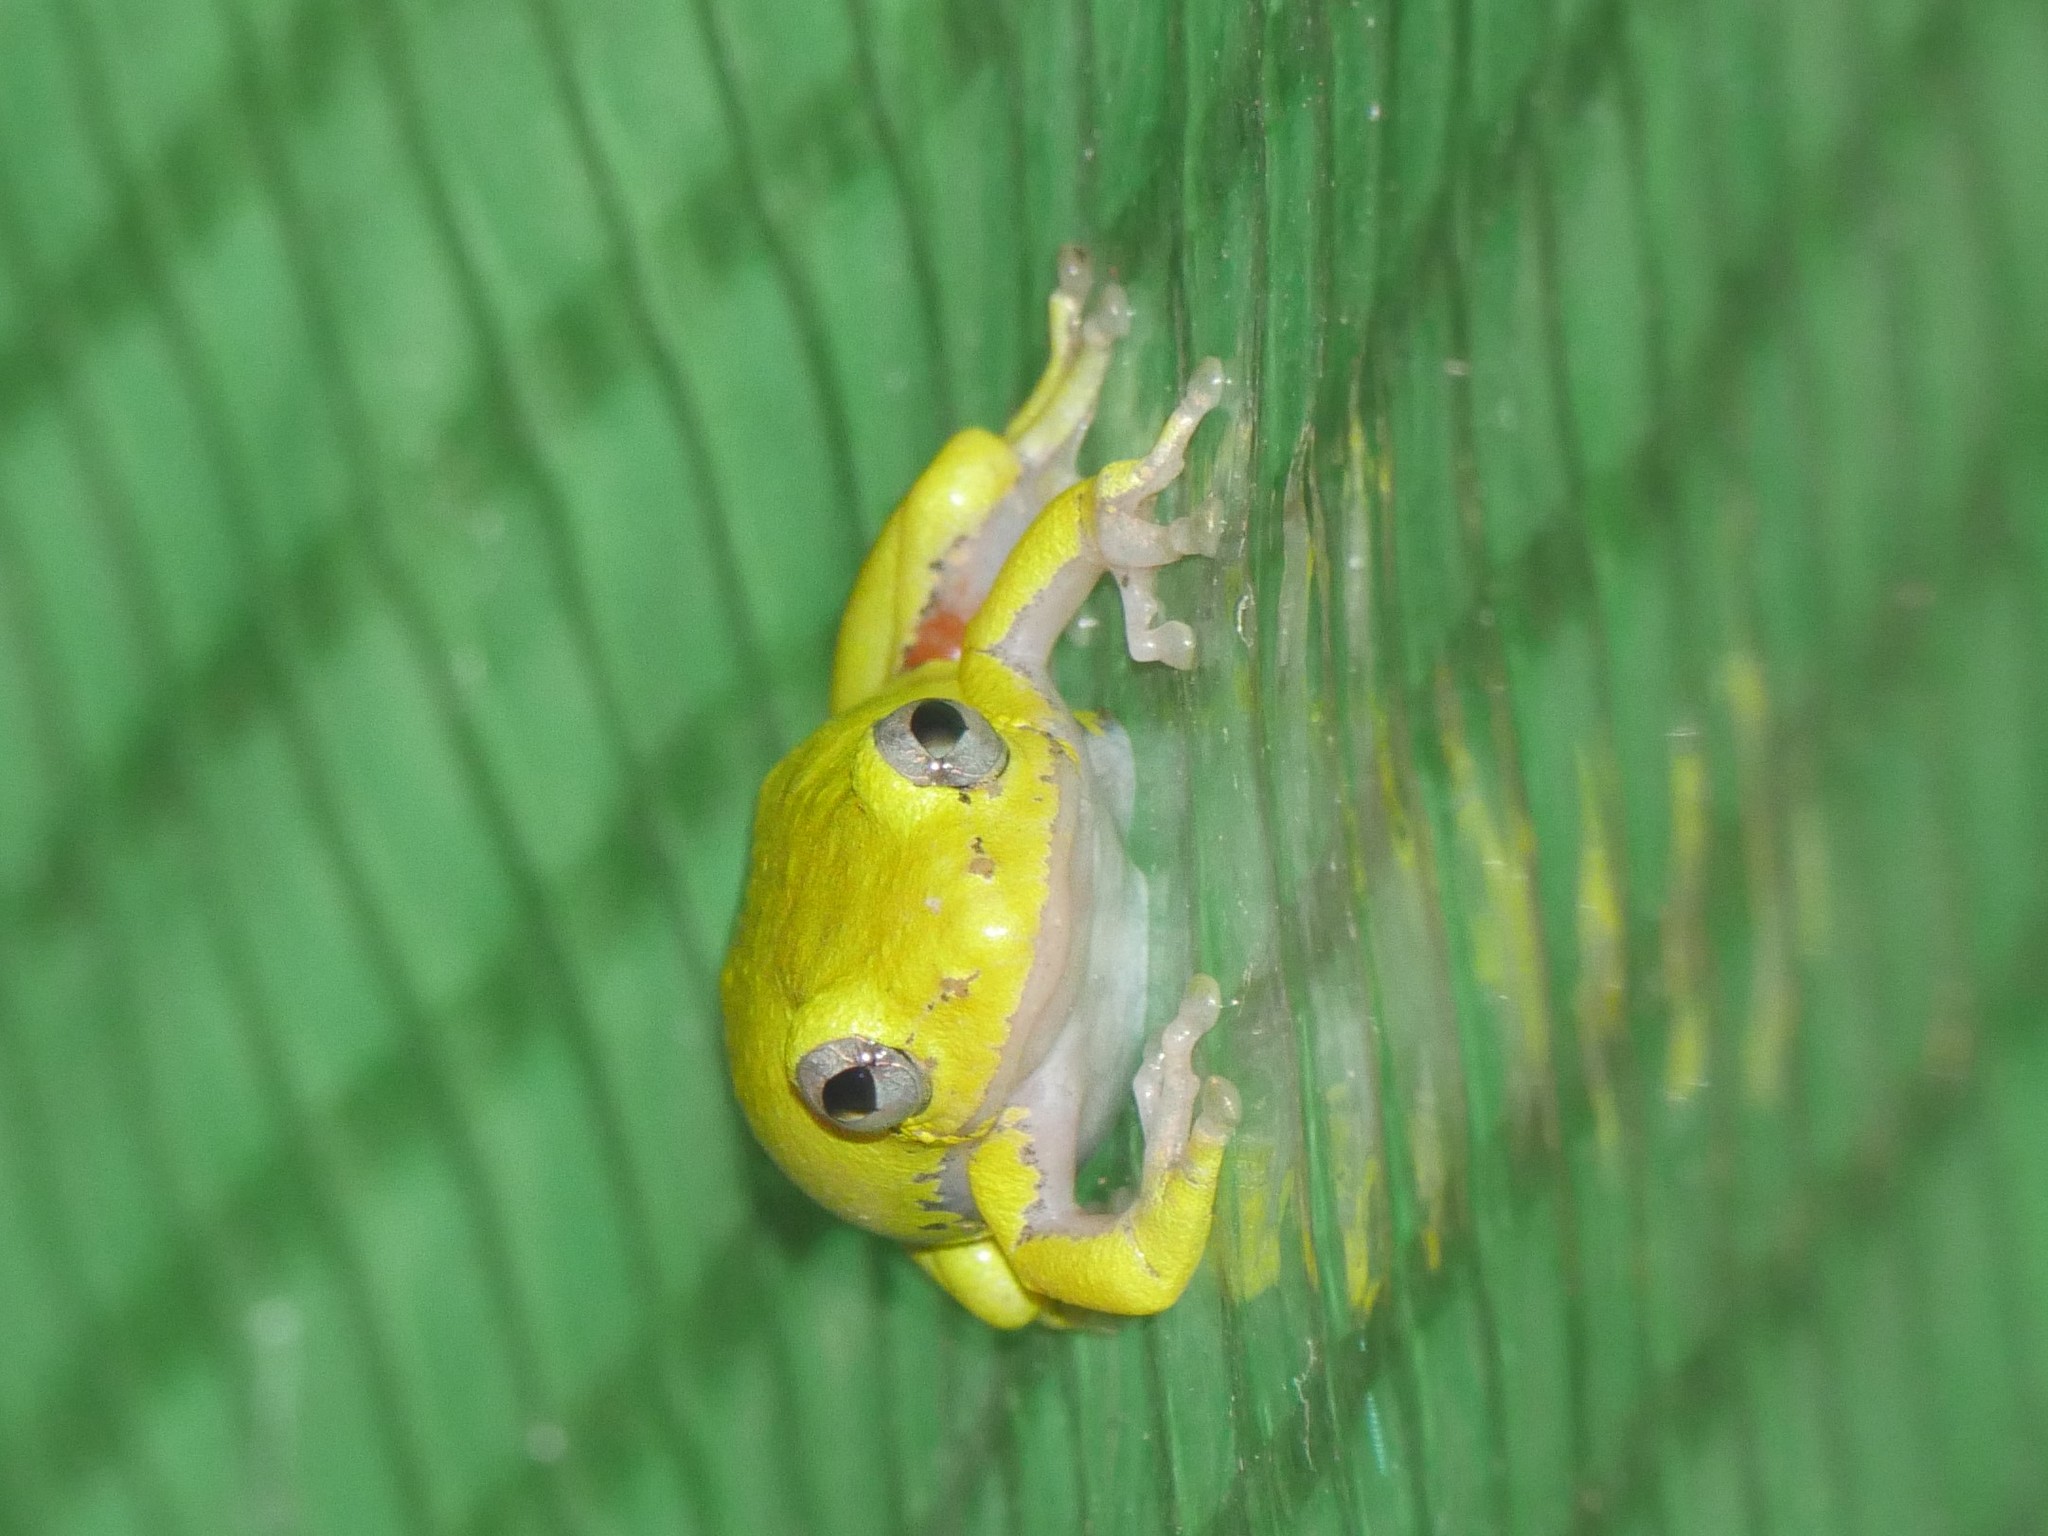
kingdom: Animalia
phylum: Chordata
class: Amphibia
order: Anura
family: Hyperoliidae
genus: Hyperolius
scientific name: Hyperolius cinnamomeoventris
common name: Duque reed frog
